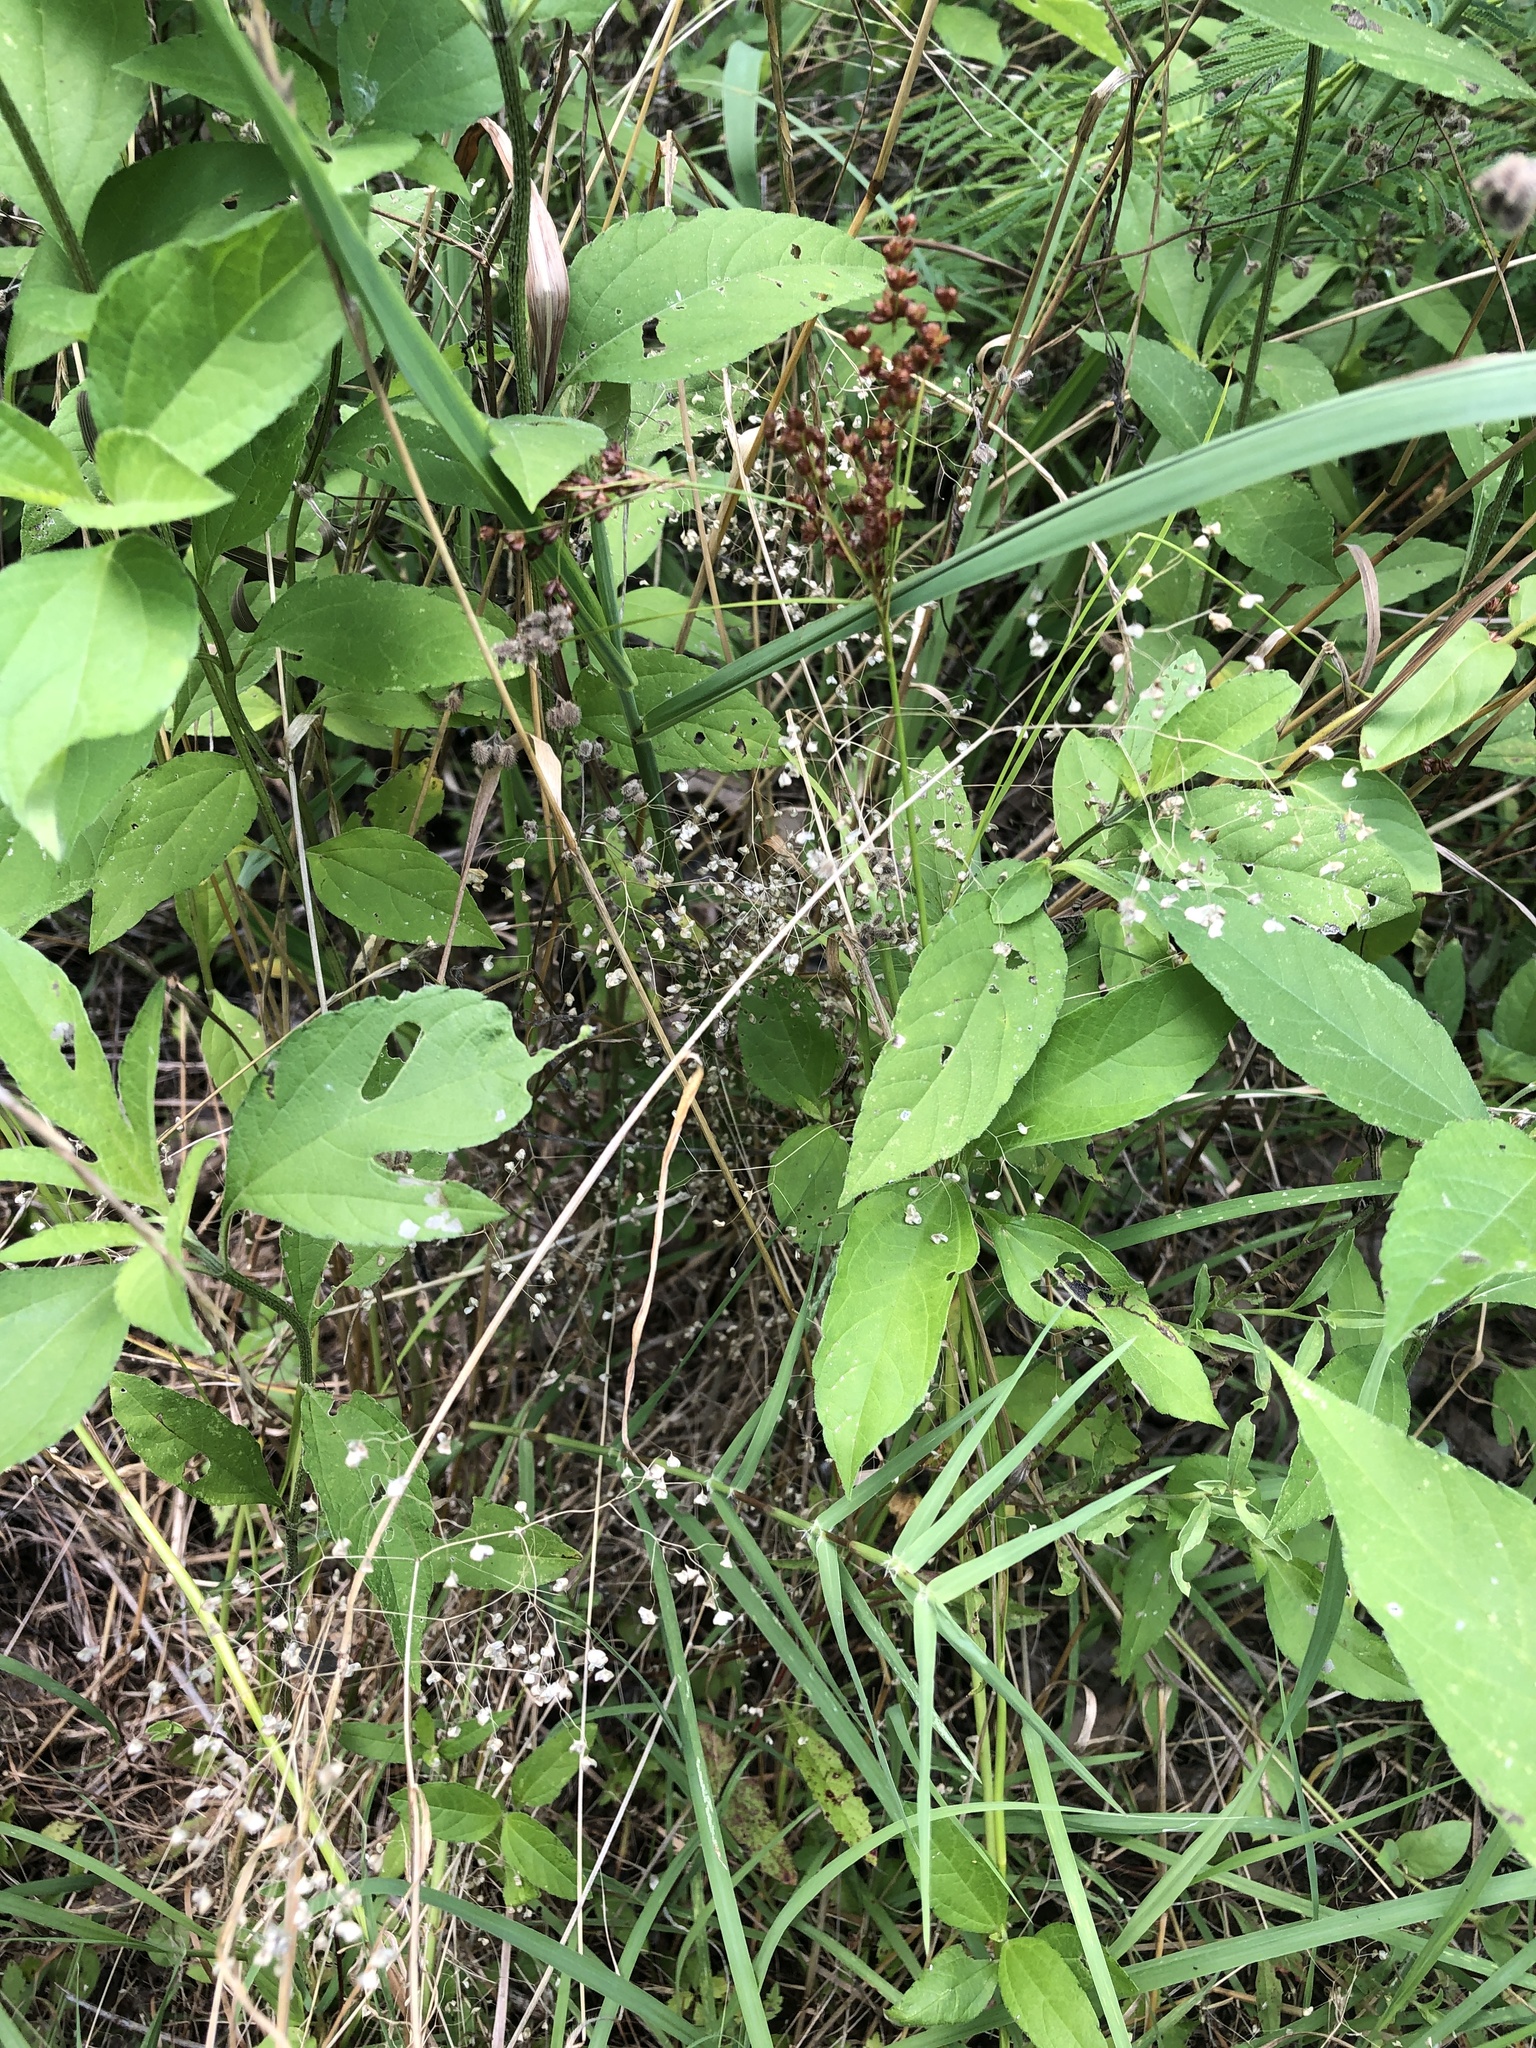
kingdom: Plantae
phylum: Tracheophyta
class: Liliopsida
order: Poales
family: Poaceae
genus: Briza
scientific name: Briza minor
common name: Lesser quaking-grass
